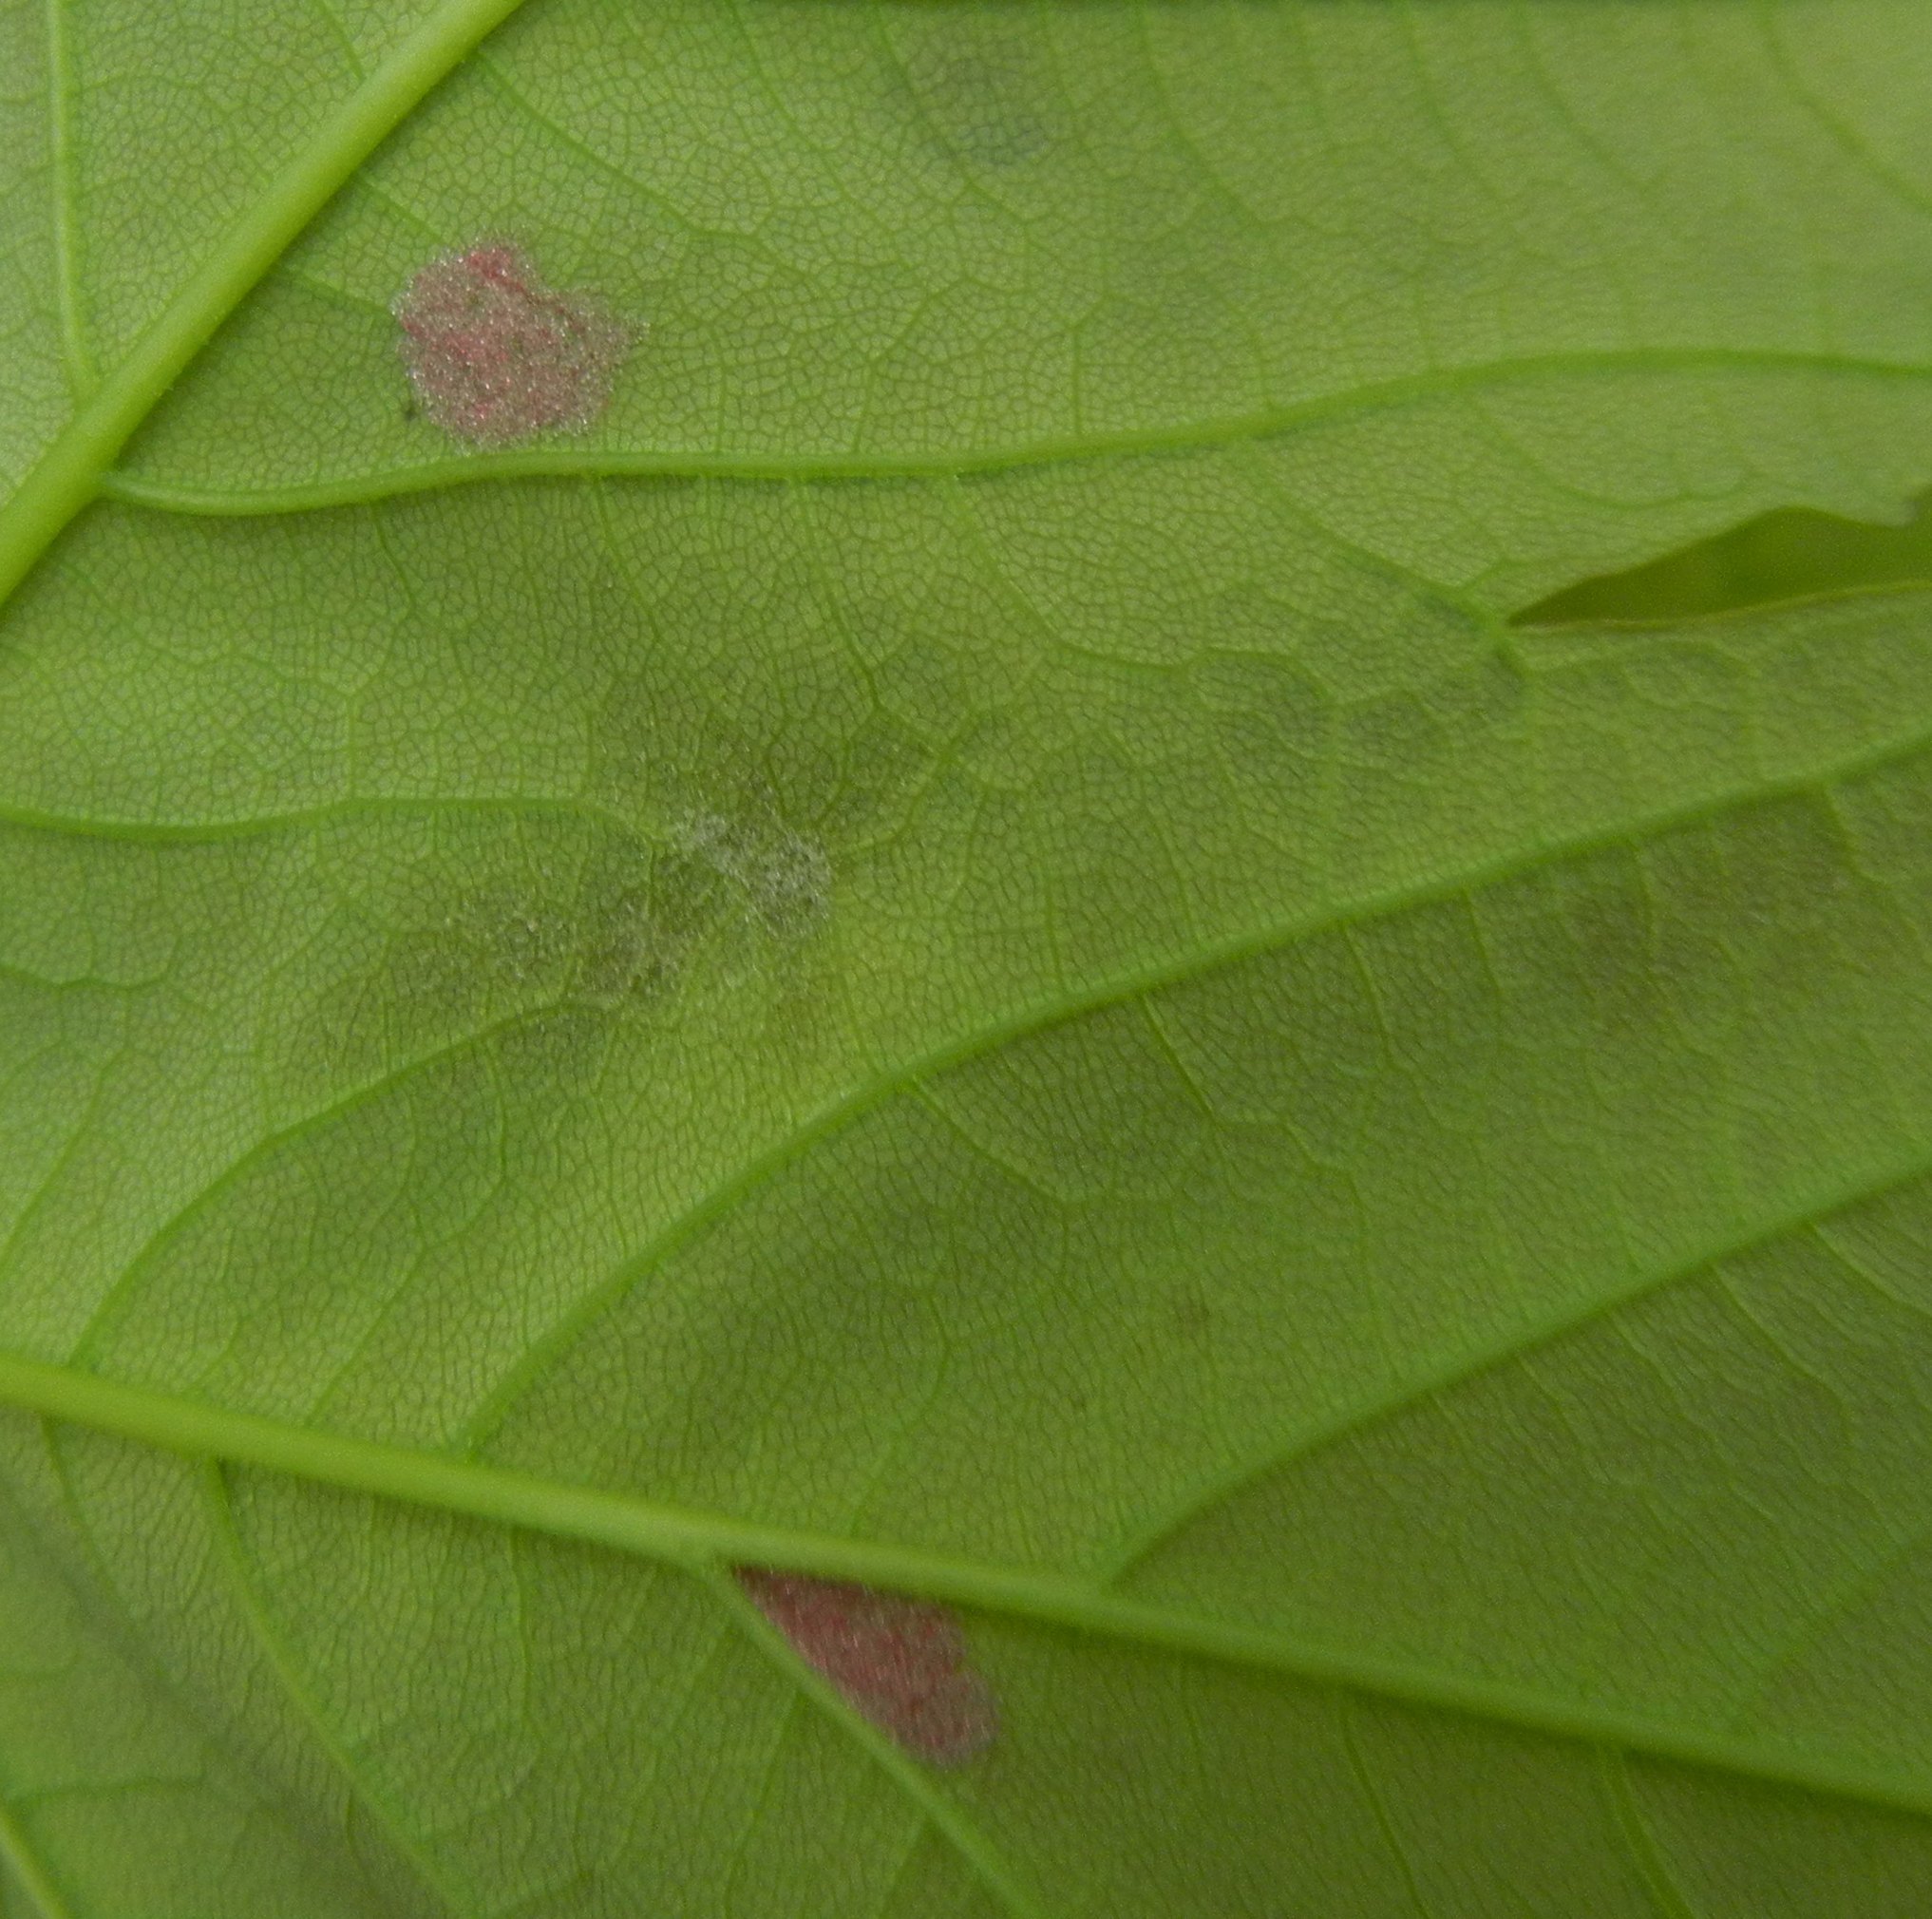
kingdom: Animalia
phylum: Arthropoda
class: Arachnida
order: Trombidiformes
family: Eriophyidae
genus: Aceria
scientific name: Aceria pseudoplatani
